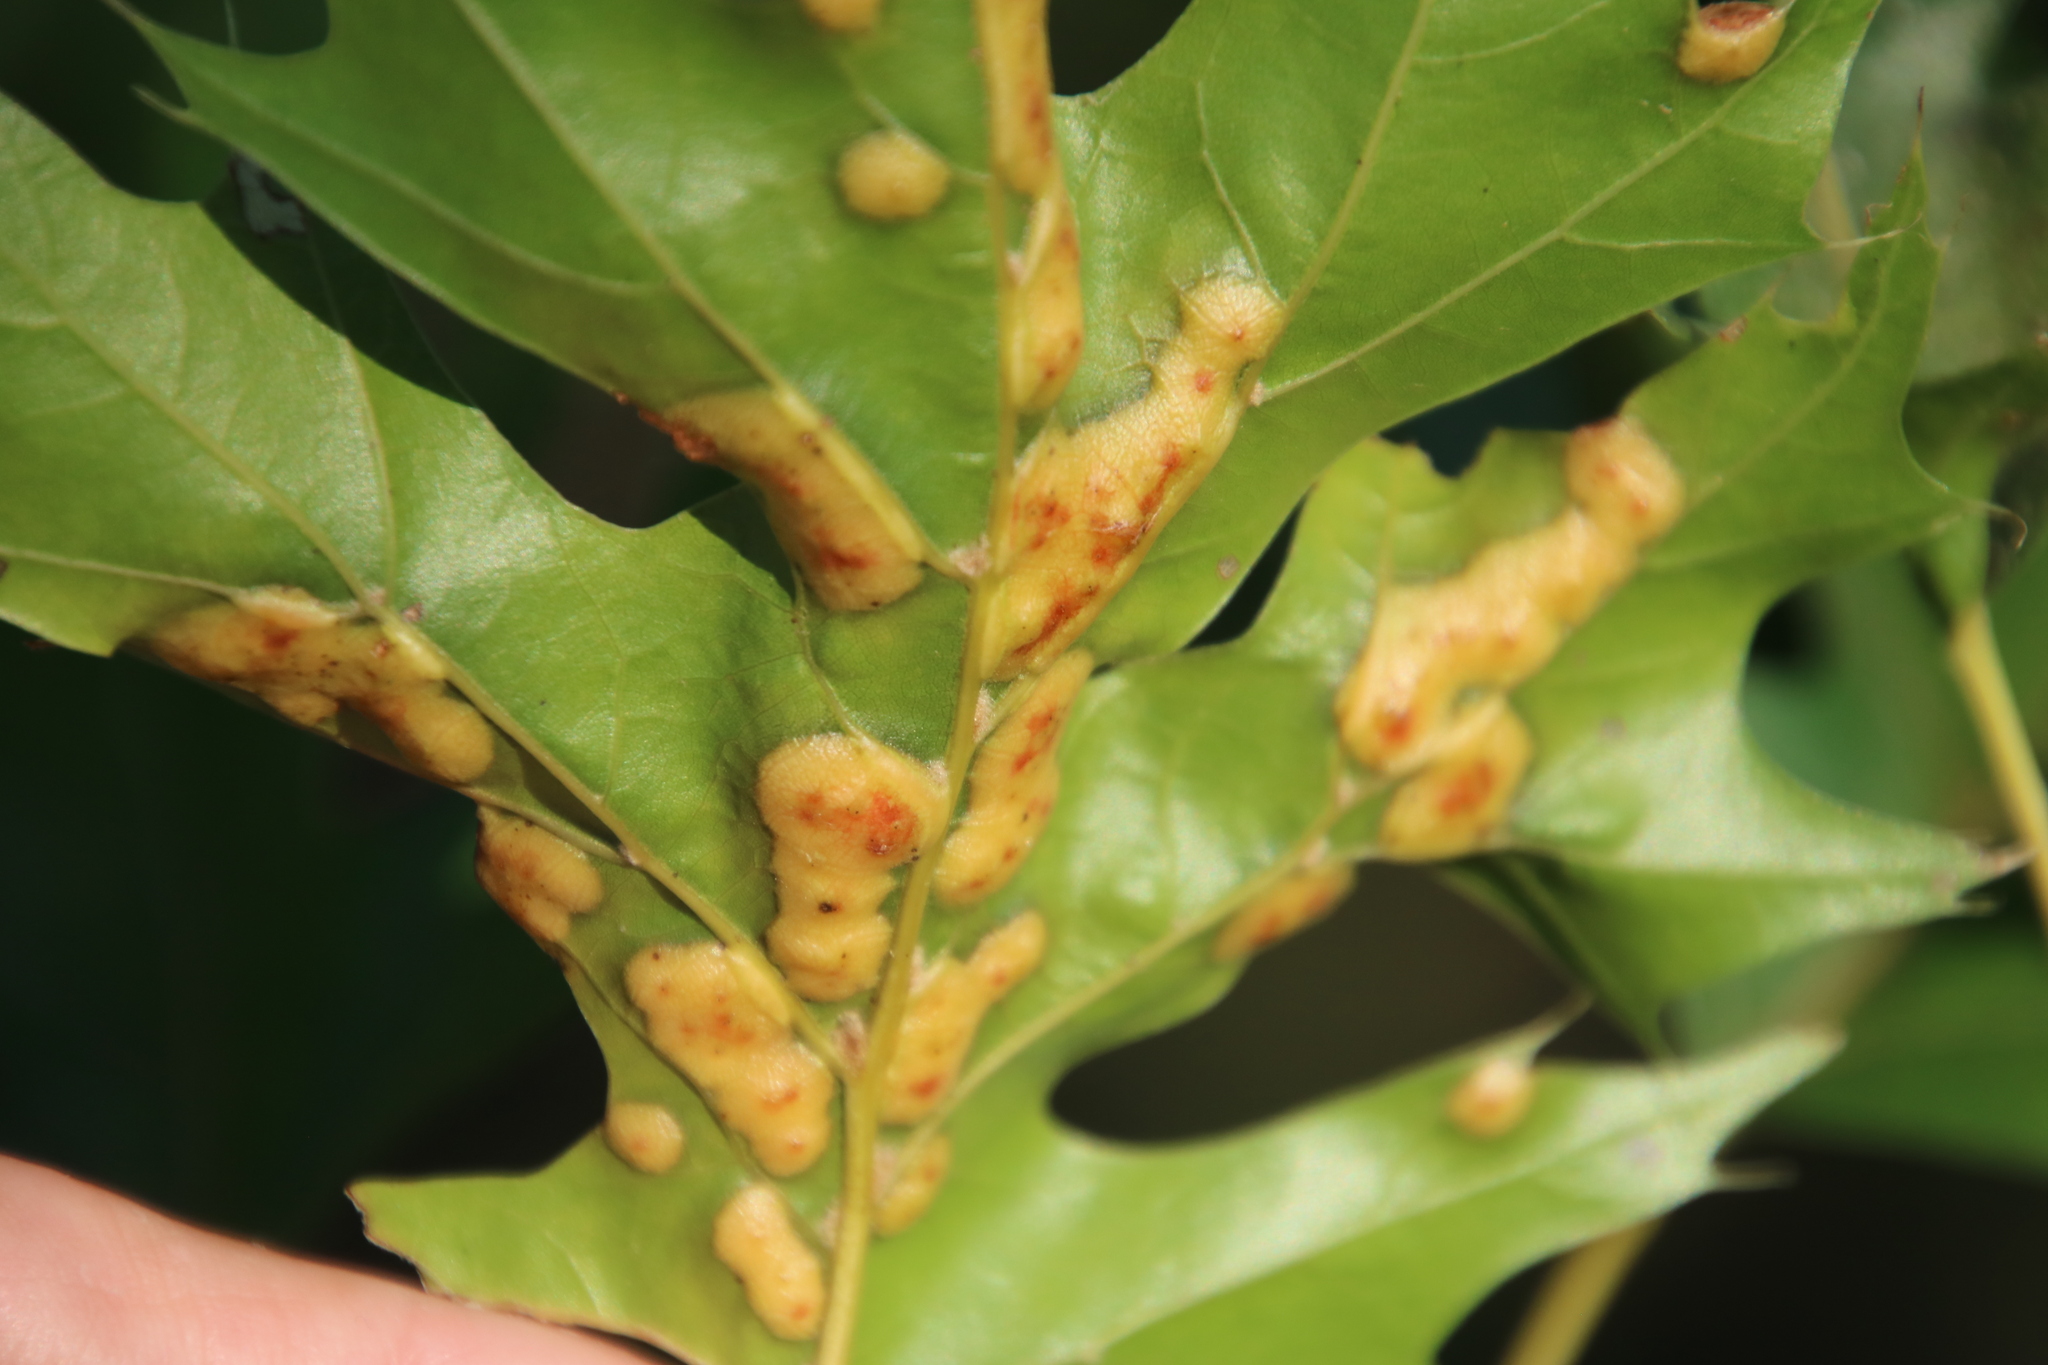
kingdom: Animalia
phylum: Arthropoda
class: Insecta
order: Diptera
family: Cecidomyiidae
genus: Polystepha
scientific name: Polystepha pilulae
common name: Oak leaf gall midge
